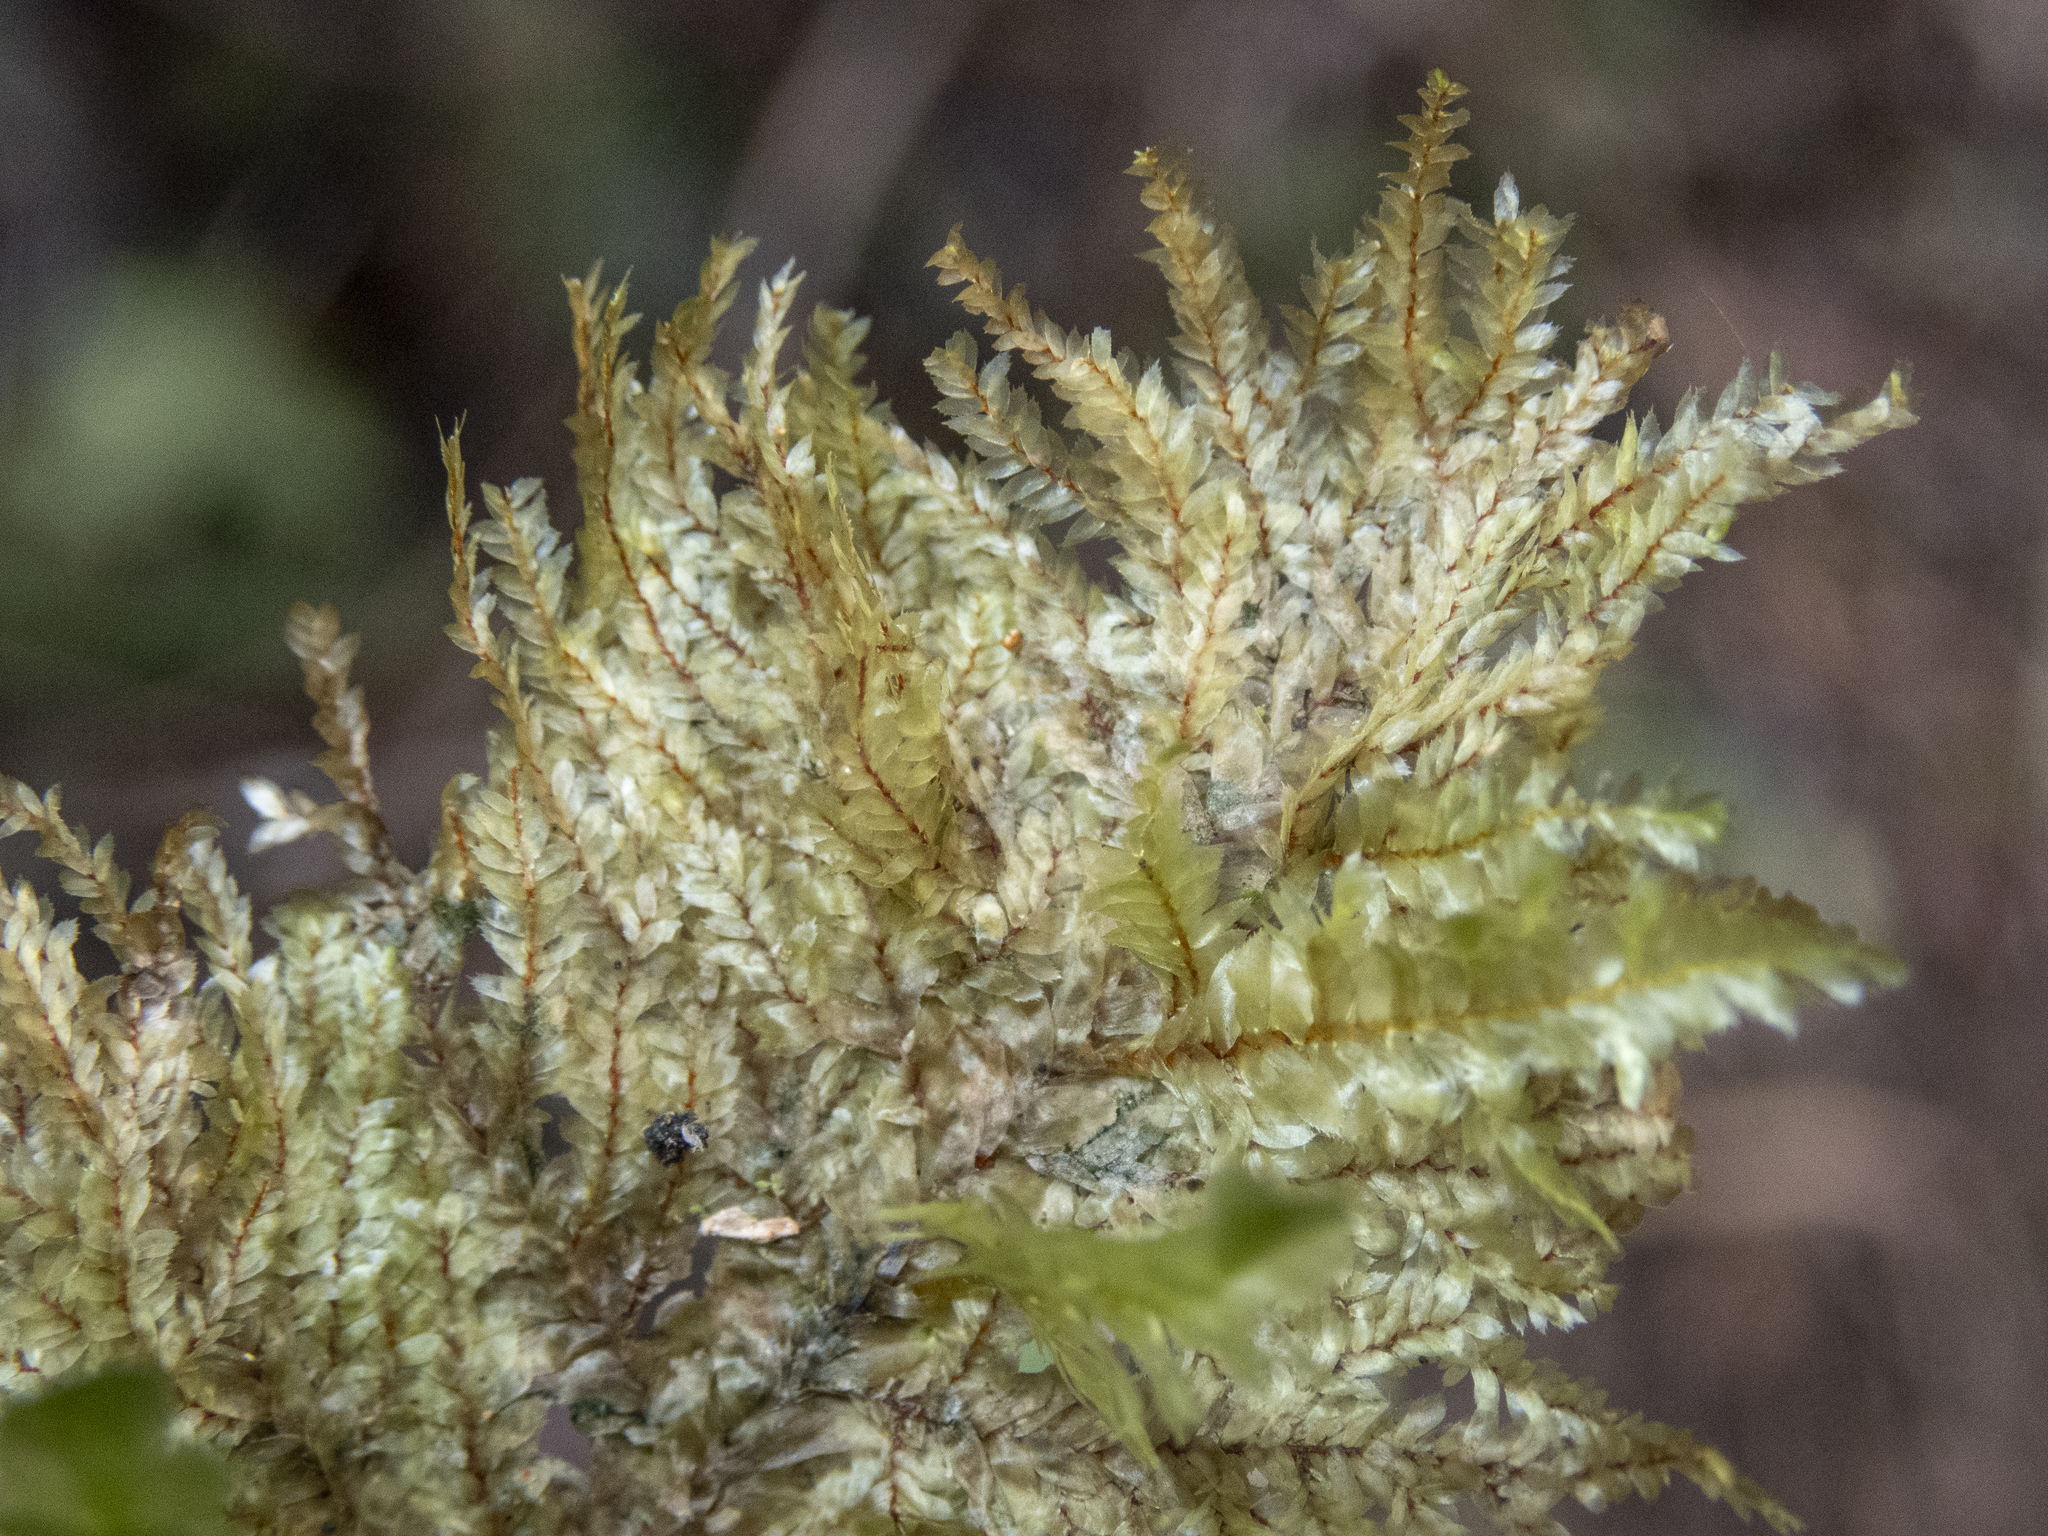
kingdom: Plantae
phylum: Bryophyta
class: Bryopsida
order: Hypnales
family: Neckeraceae
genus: Homaliodendron
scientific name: Homaliodendron flabellatum
